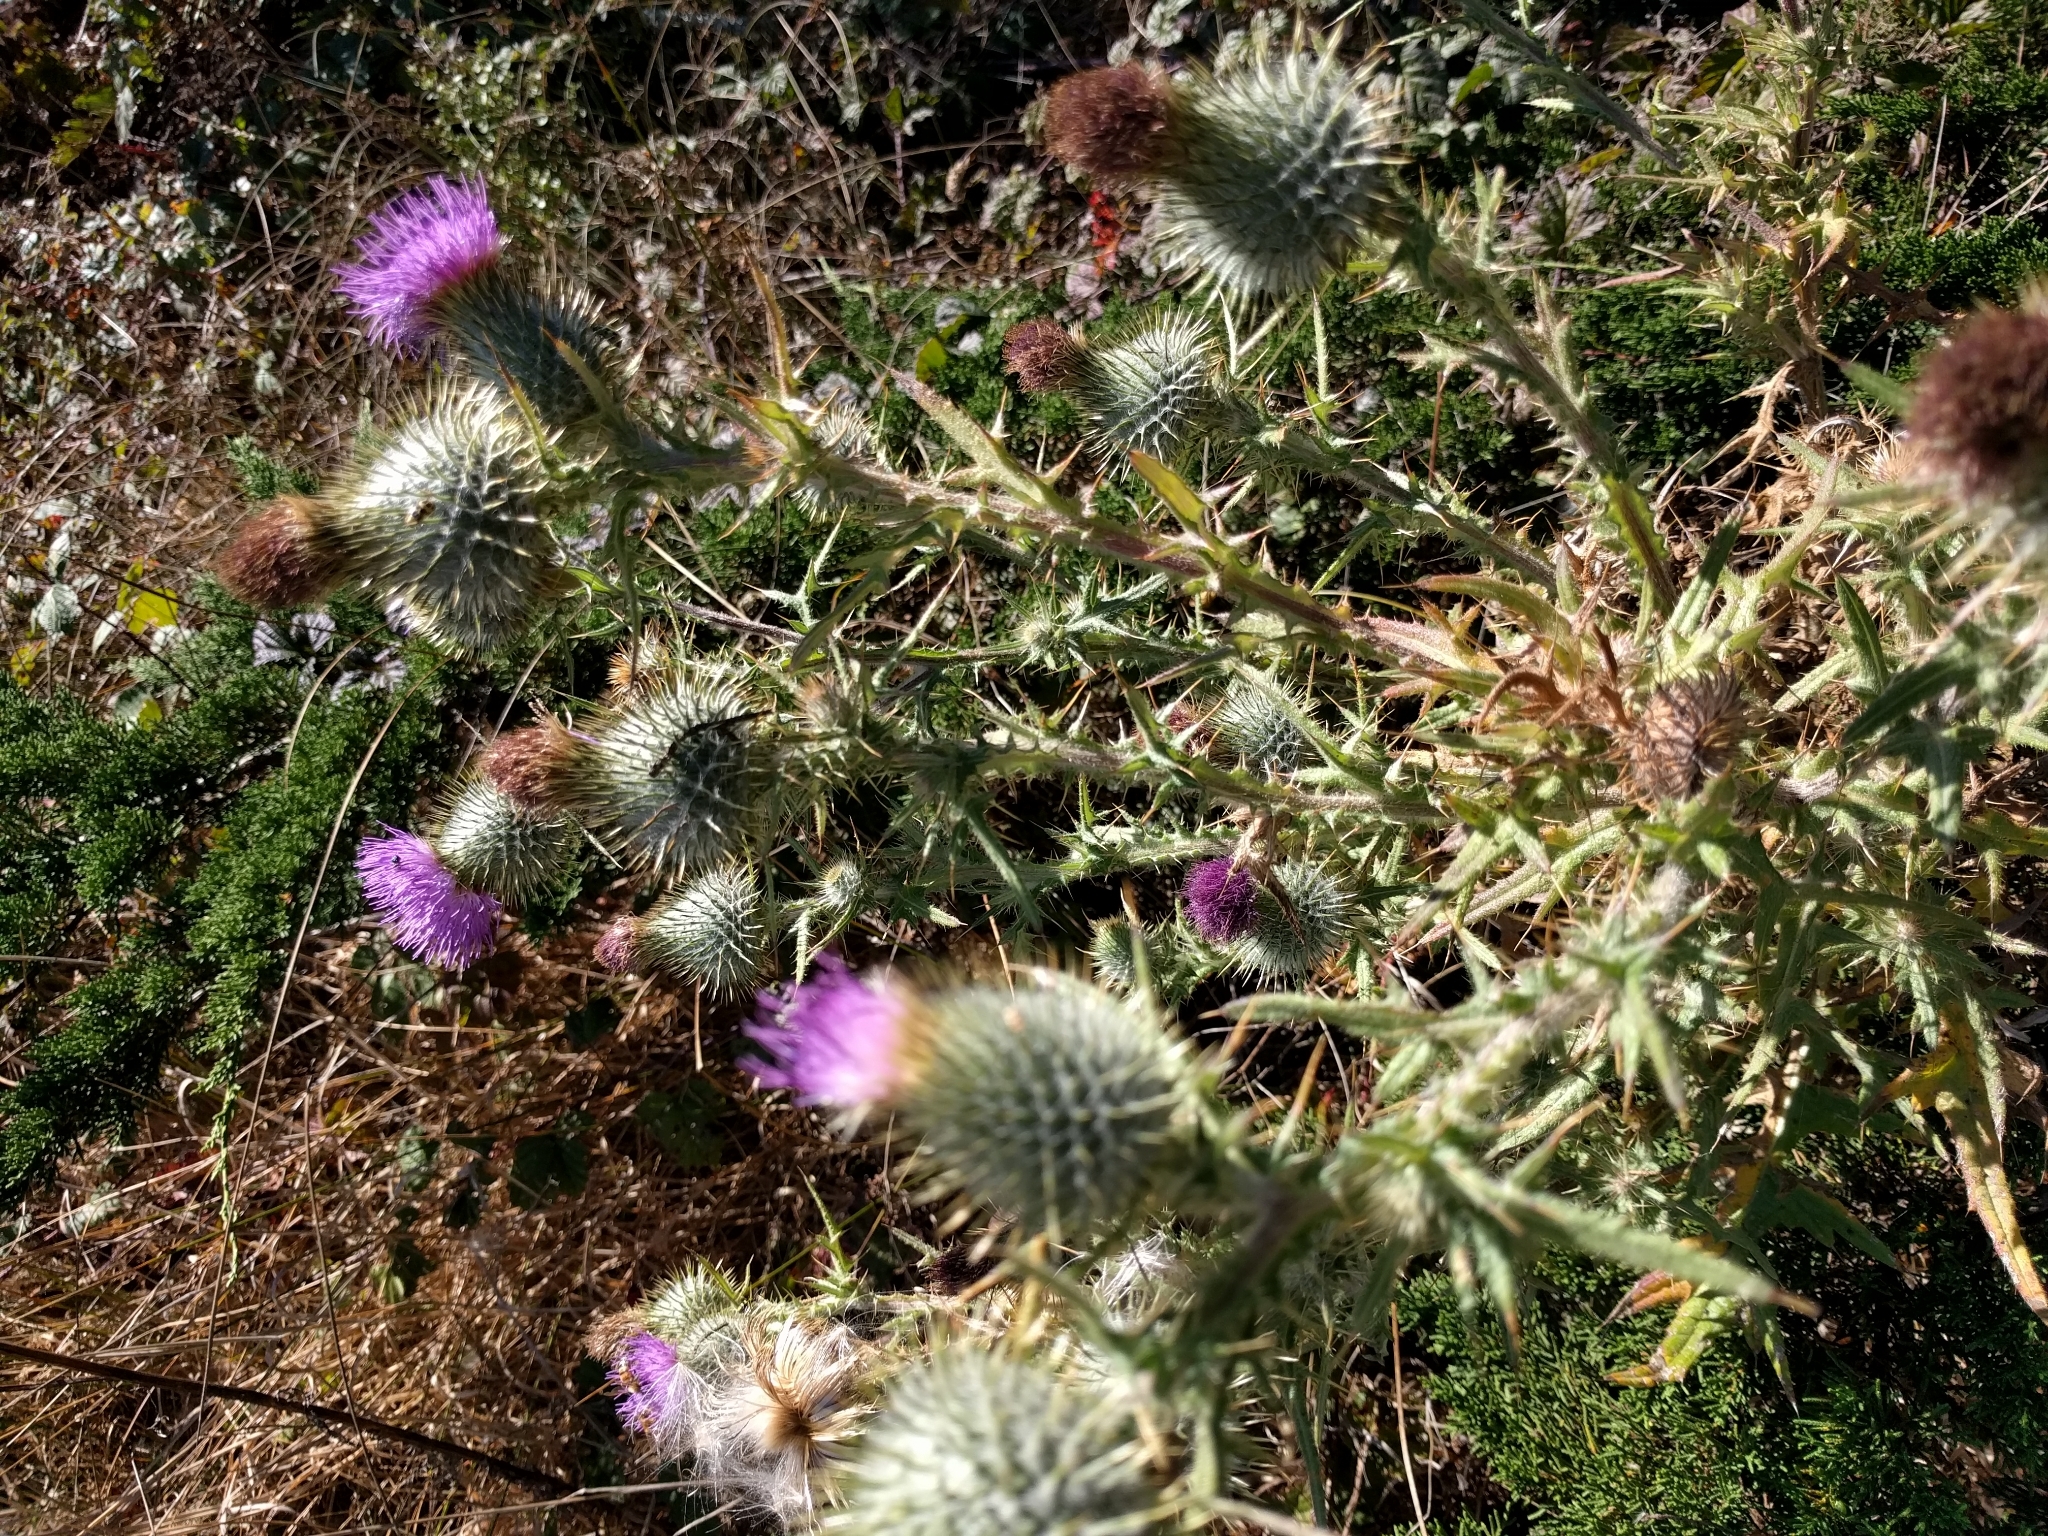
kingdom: Plantae
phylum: Tracheophyta
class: Magnoliopsida
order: Asterales
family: Asteraceae
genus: Cirsium
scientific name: Cirsium vulgare
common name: Bull thistle
